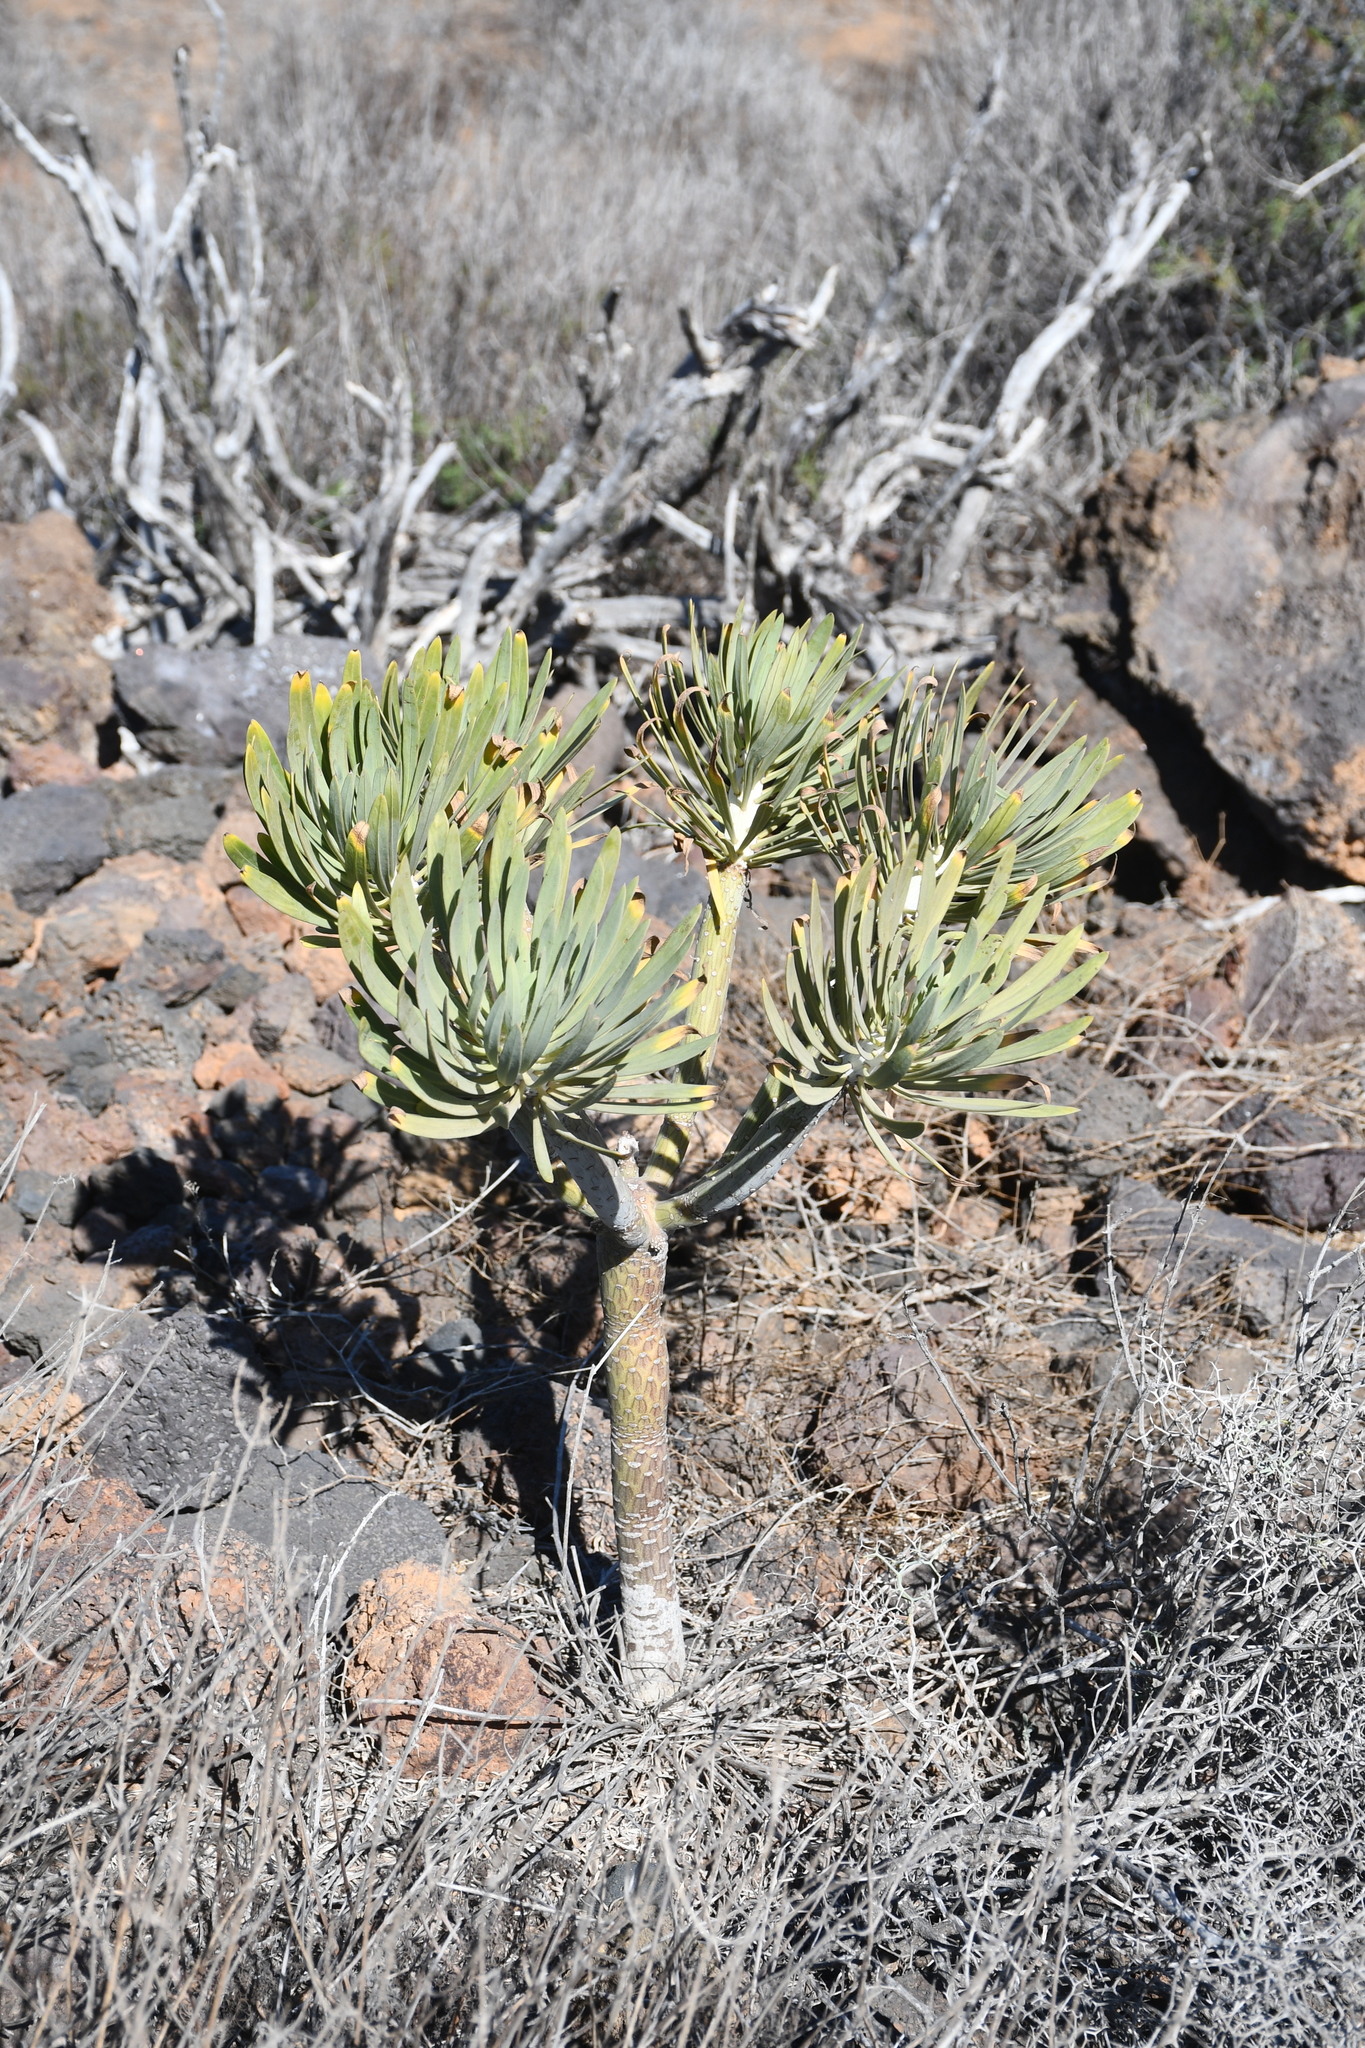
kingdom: Plantae
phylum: Tracheophyta
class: Magnoliopsida
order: Asterales
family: Asteraceae
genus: Kleinia
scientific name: Kleinia neriifolia
